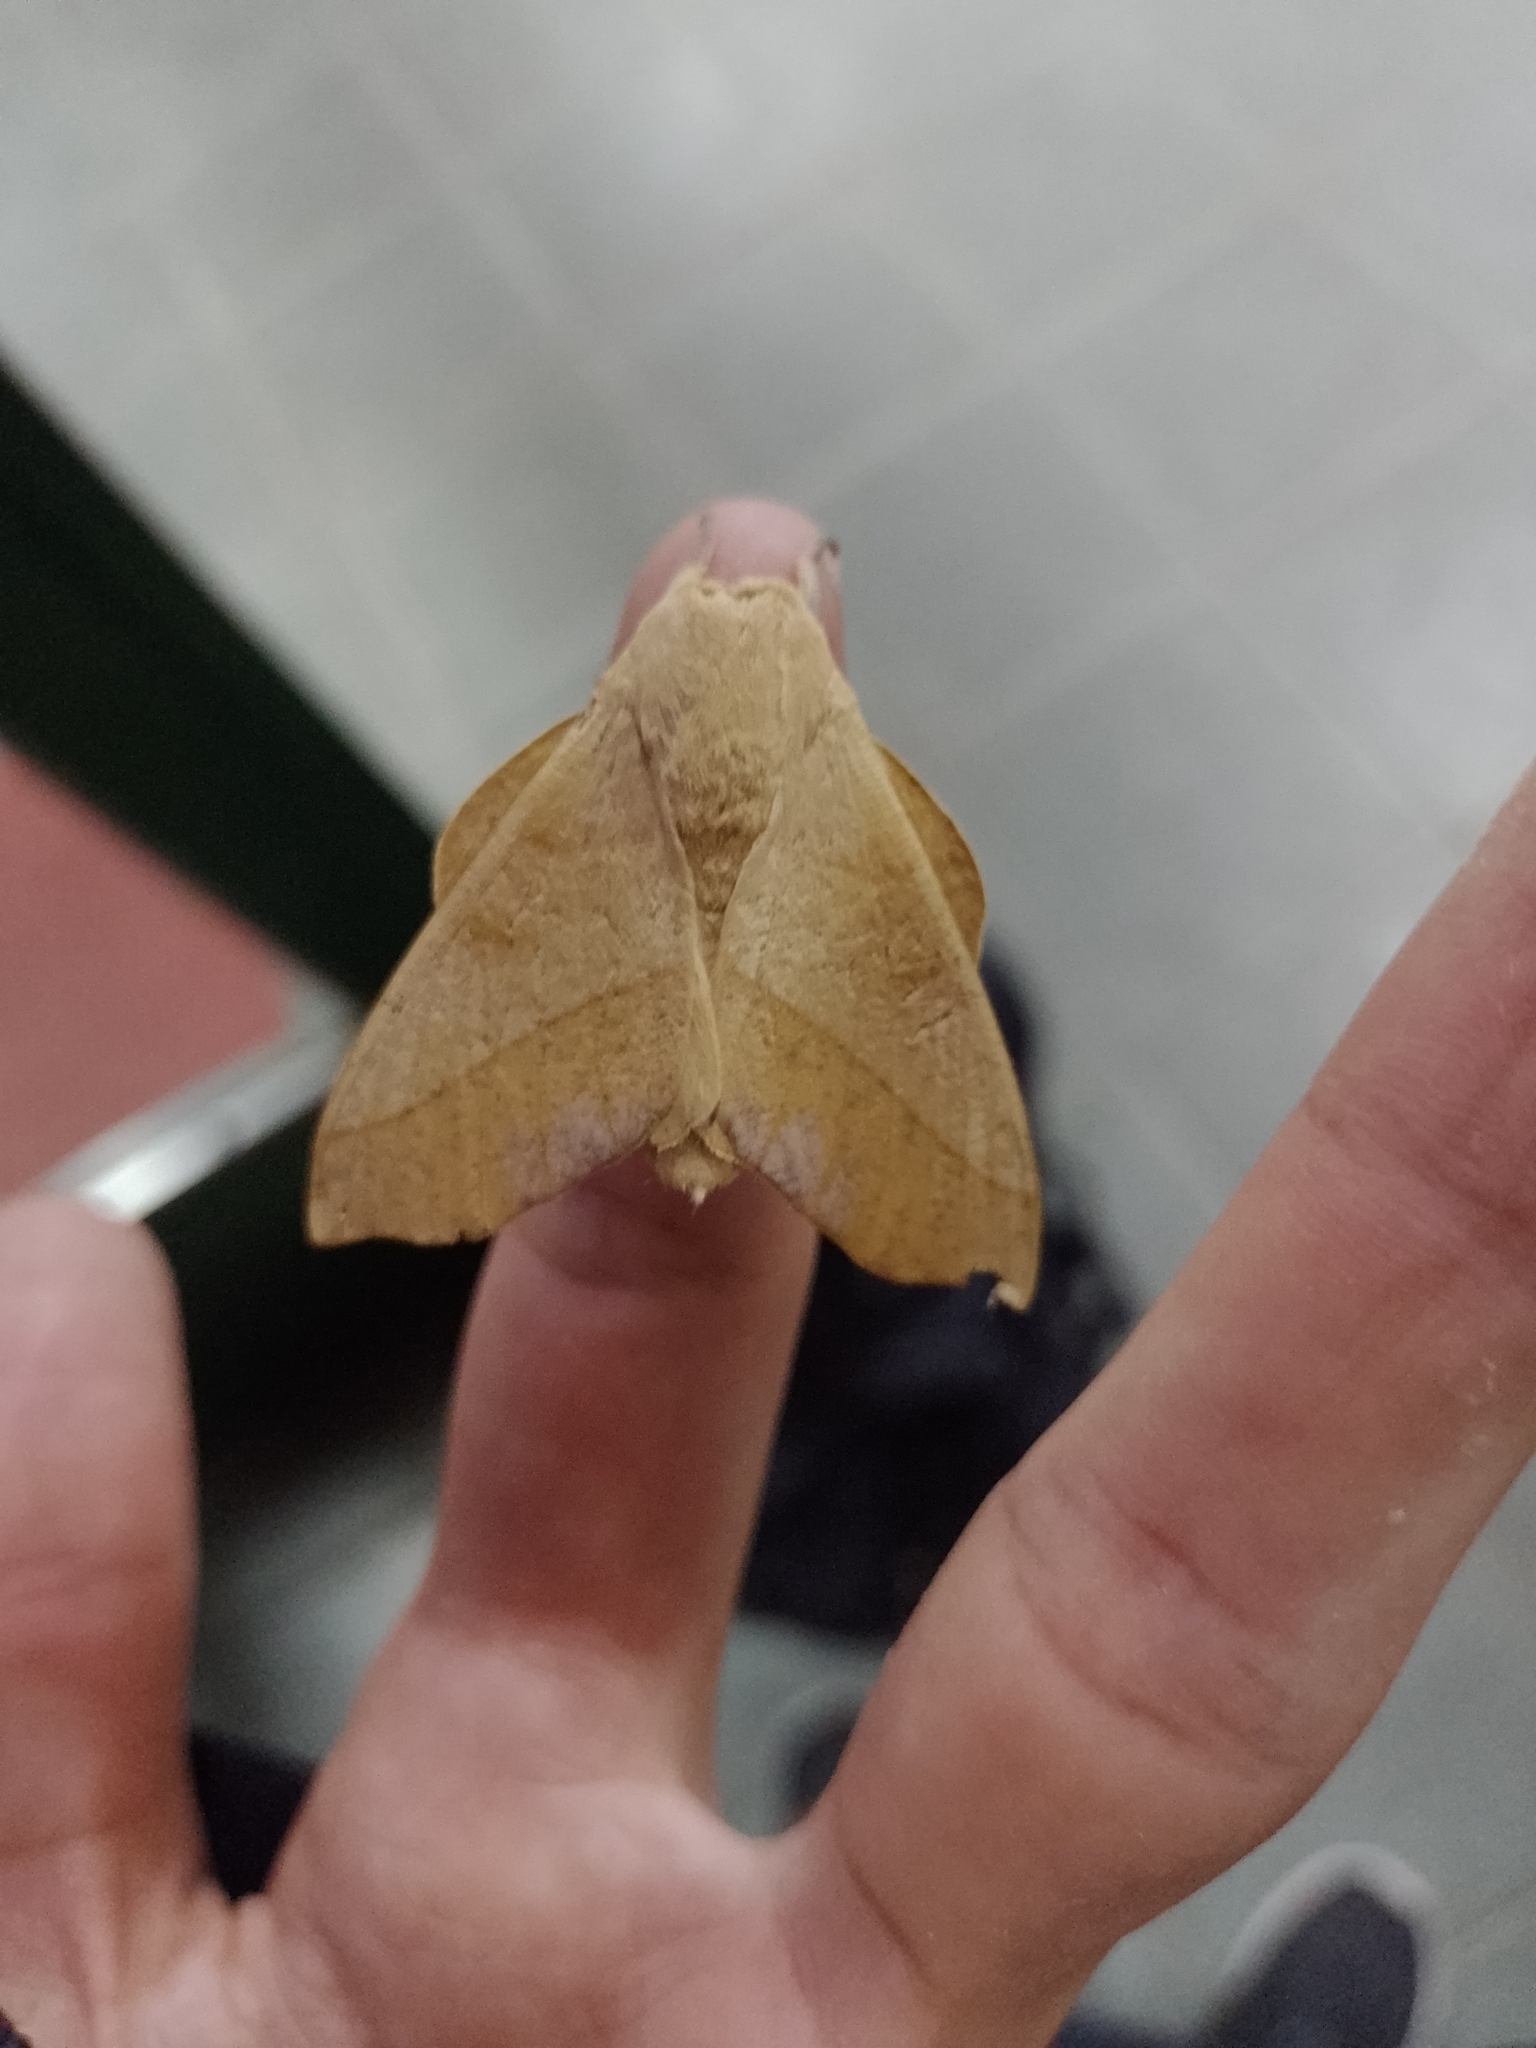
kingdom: Animalia
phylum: Arthropoda
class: Insecta
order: Lepidoptera
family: Saturniidae
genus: Syssphinx
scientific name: Syssphinx molina
